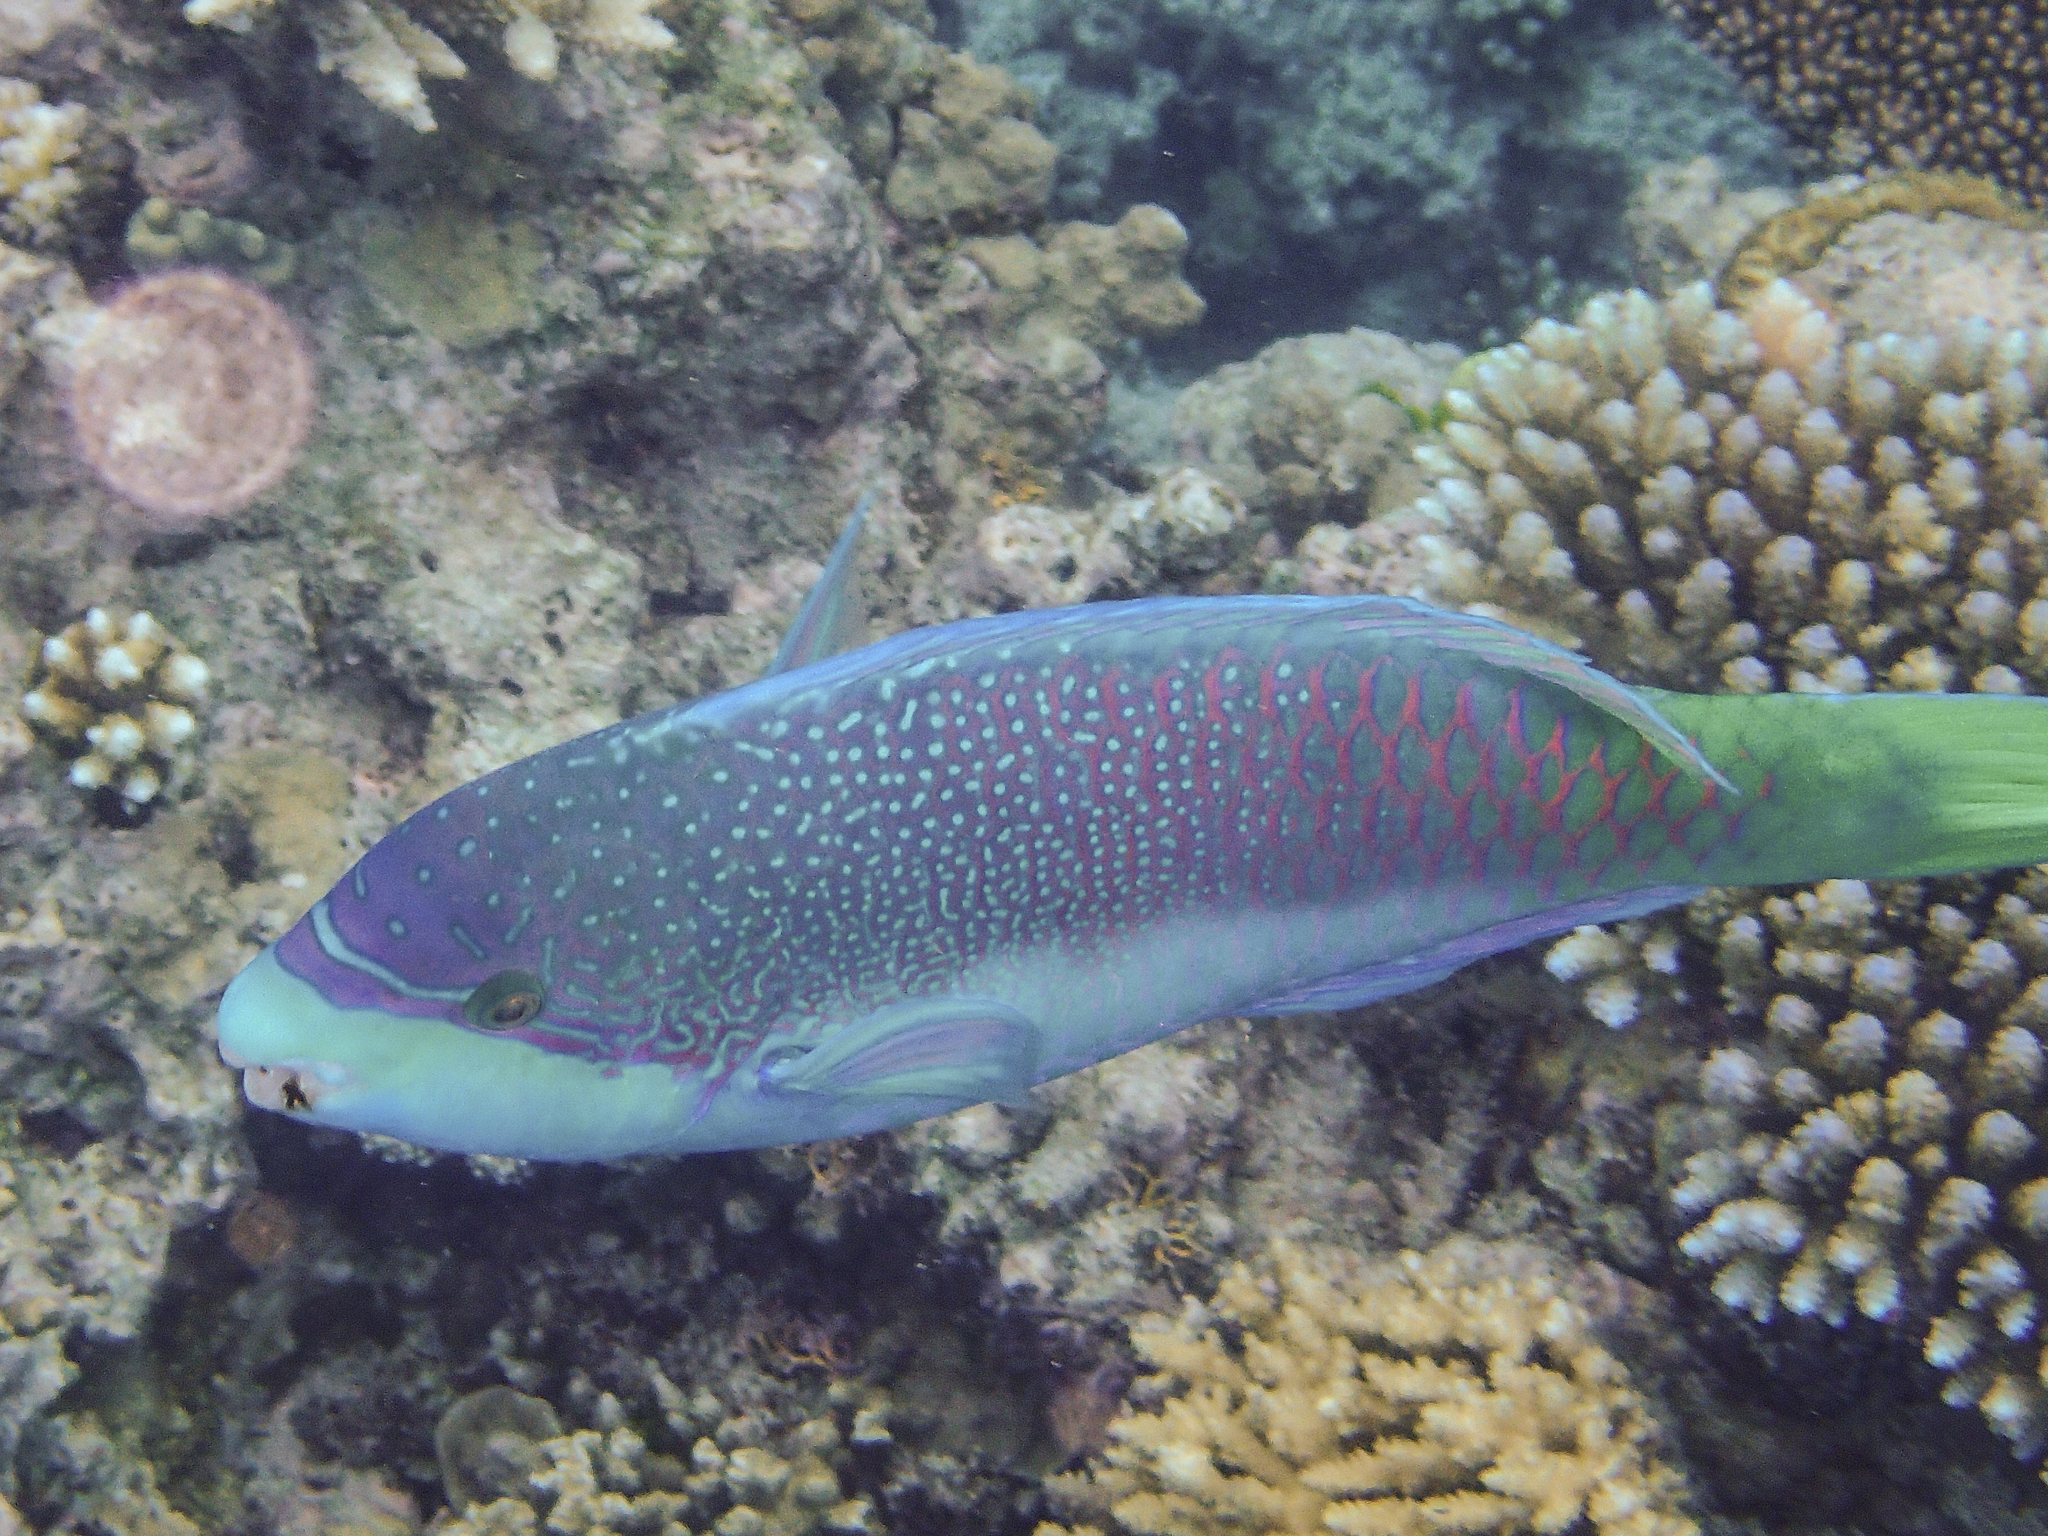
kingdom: Animalia
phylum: Chordata
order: Perciformes
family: Scaridae
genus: Scarus
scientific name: Scarus globiceps
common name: Globehead parrotfish
